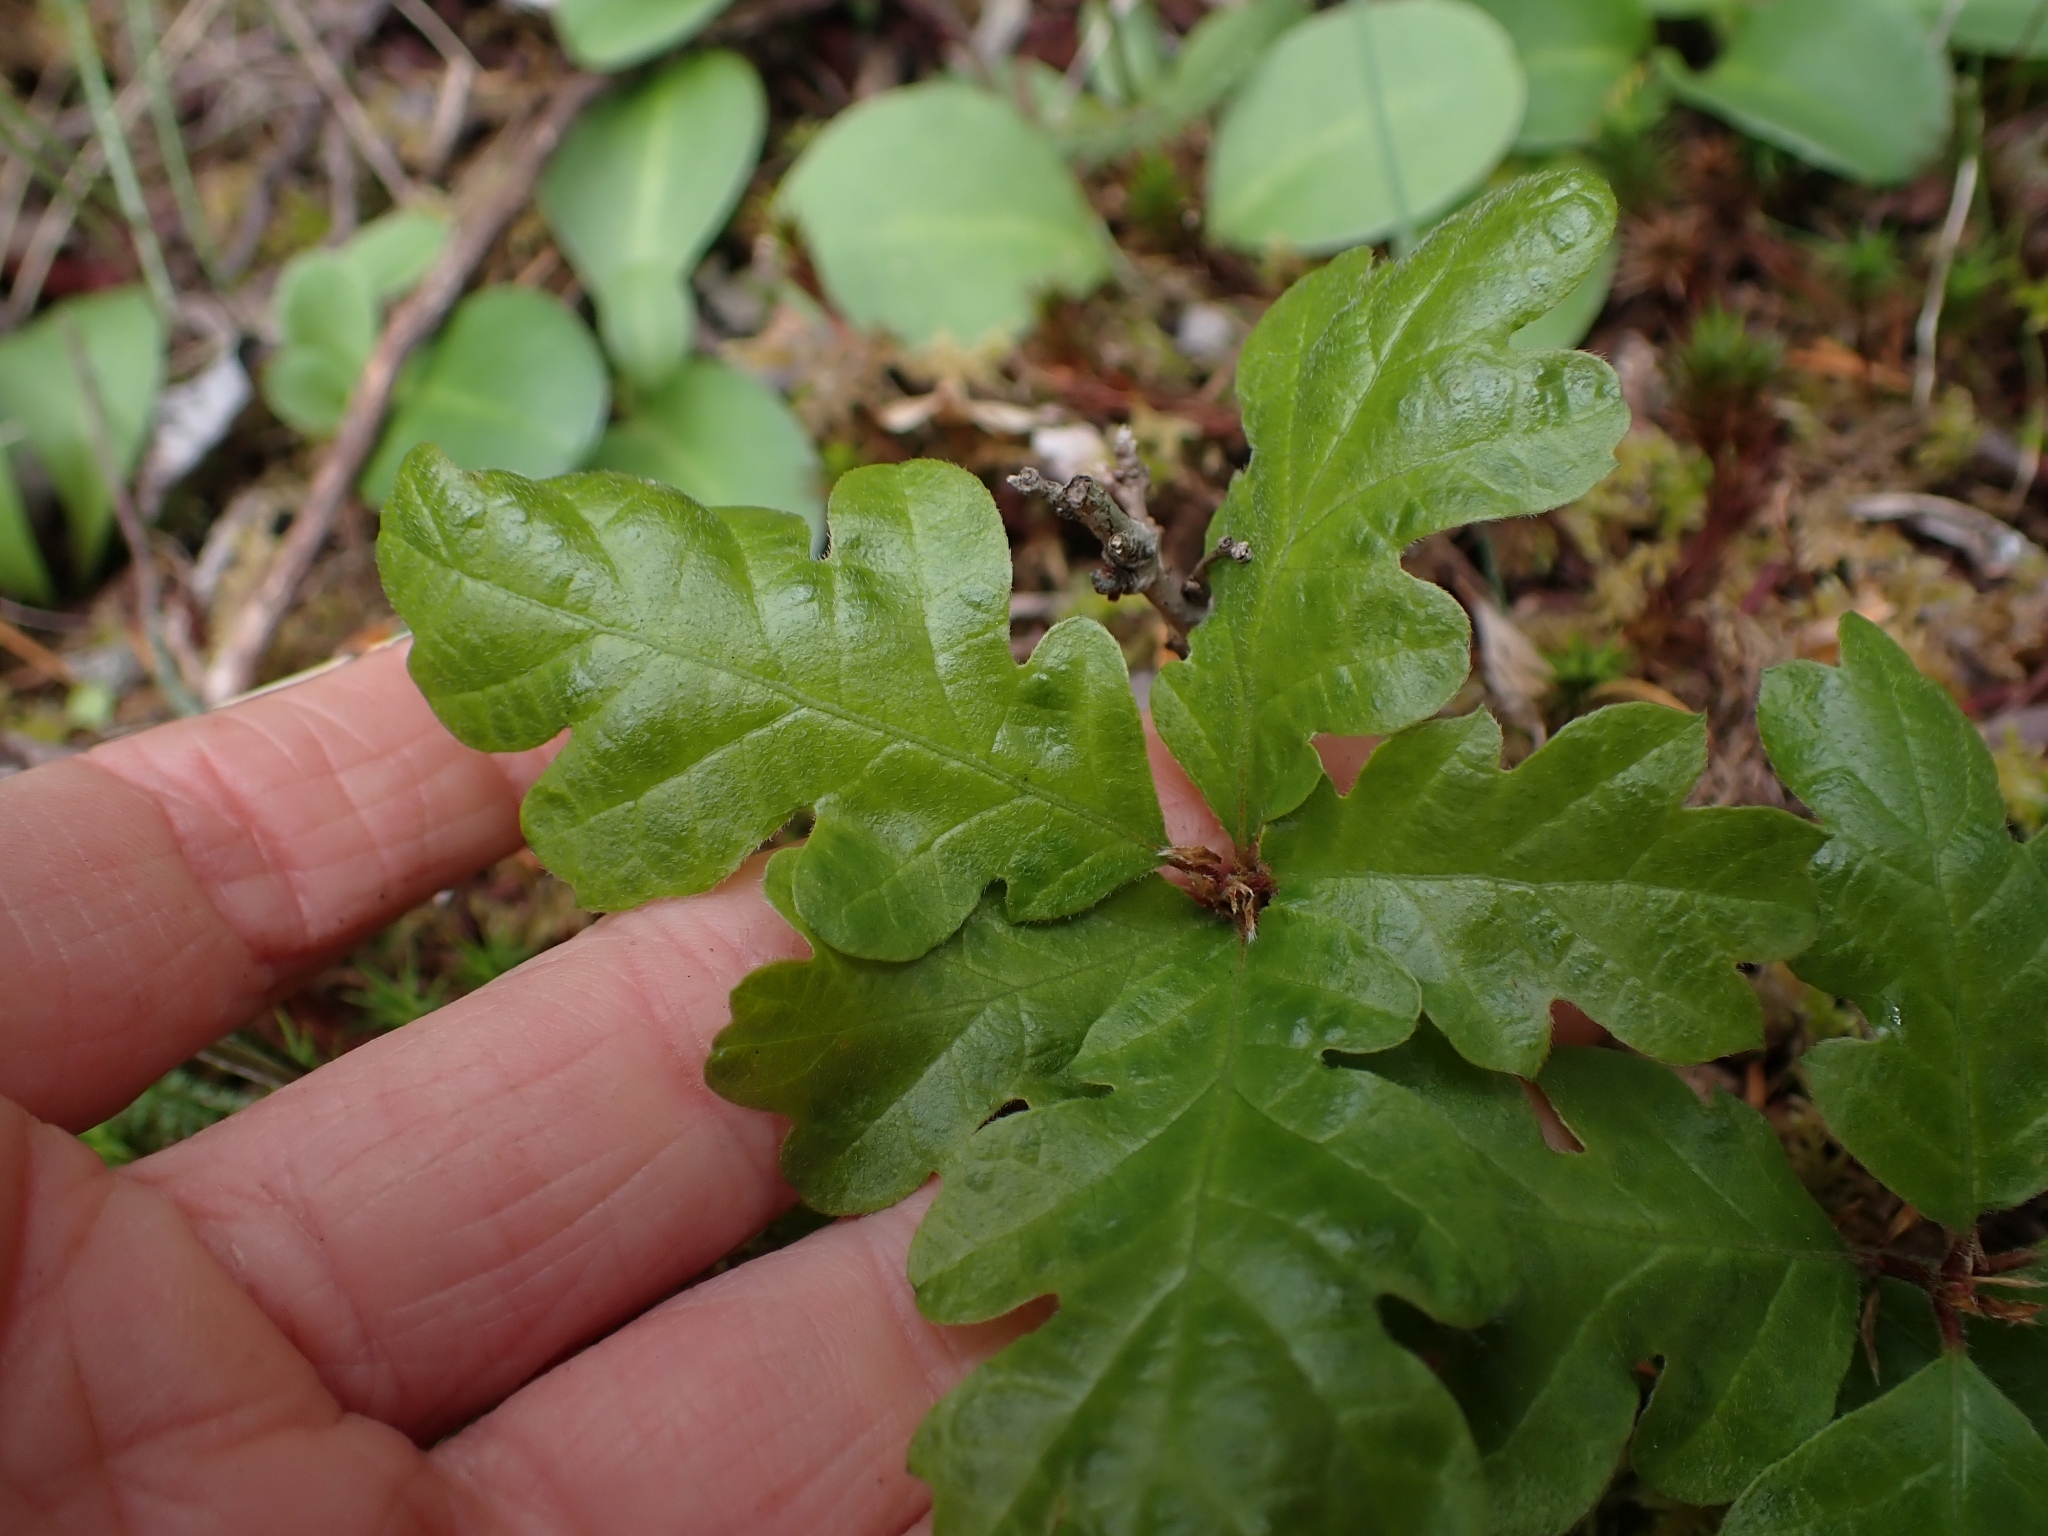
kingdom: Plantae
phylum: Tracheophyta
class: Magnoliopsida
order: Fagales
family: Fagaceae
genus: Quercus
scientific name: Quercus garryana
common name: Garry oak
